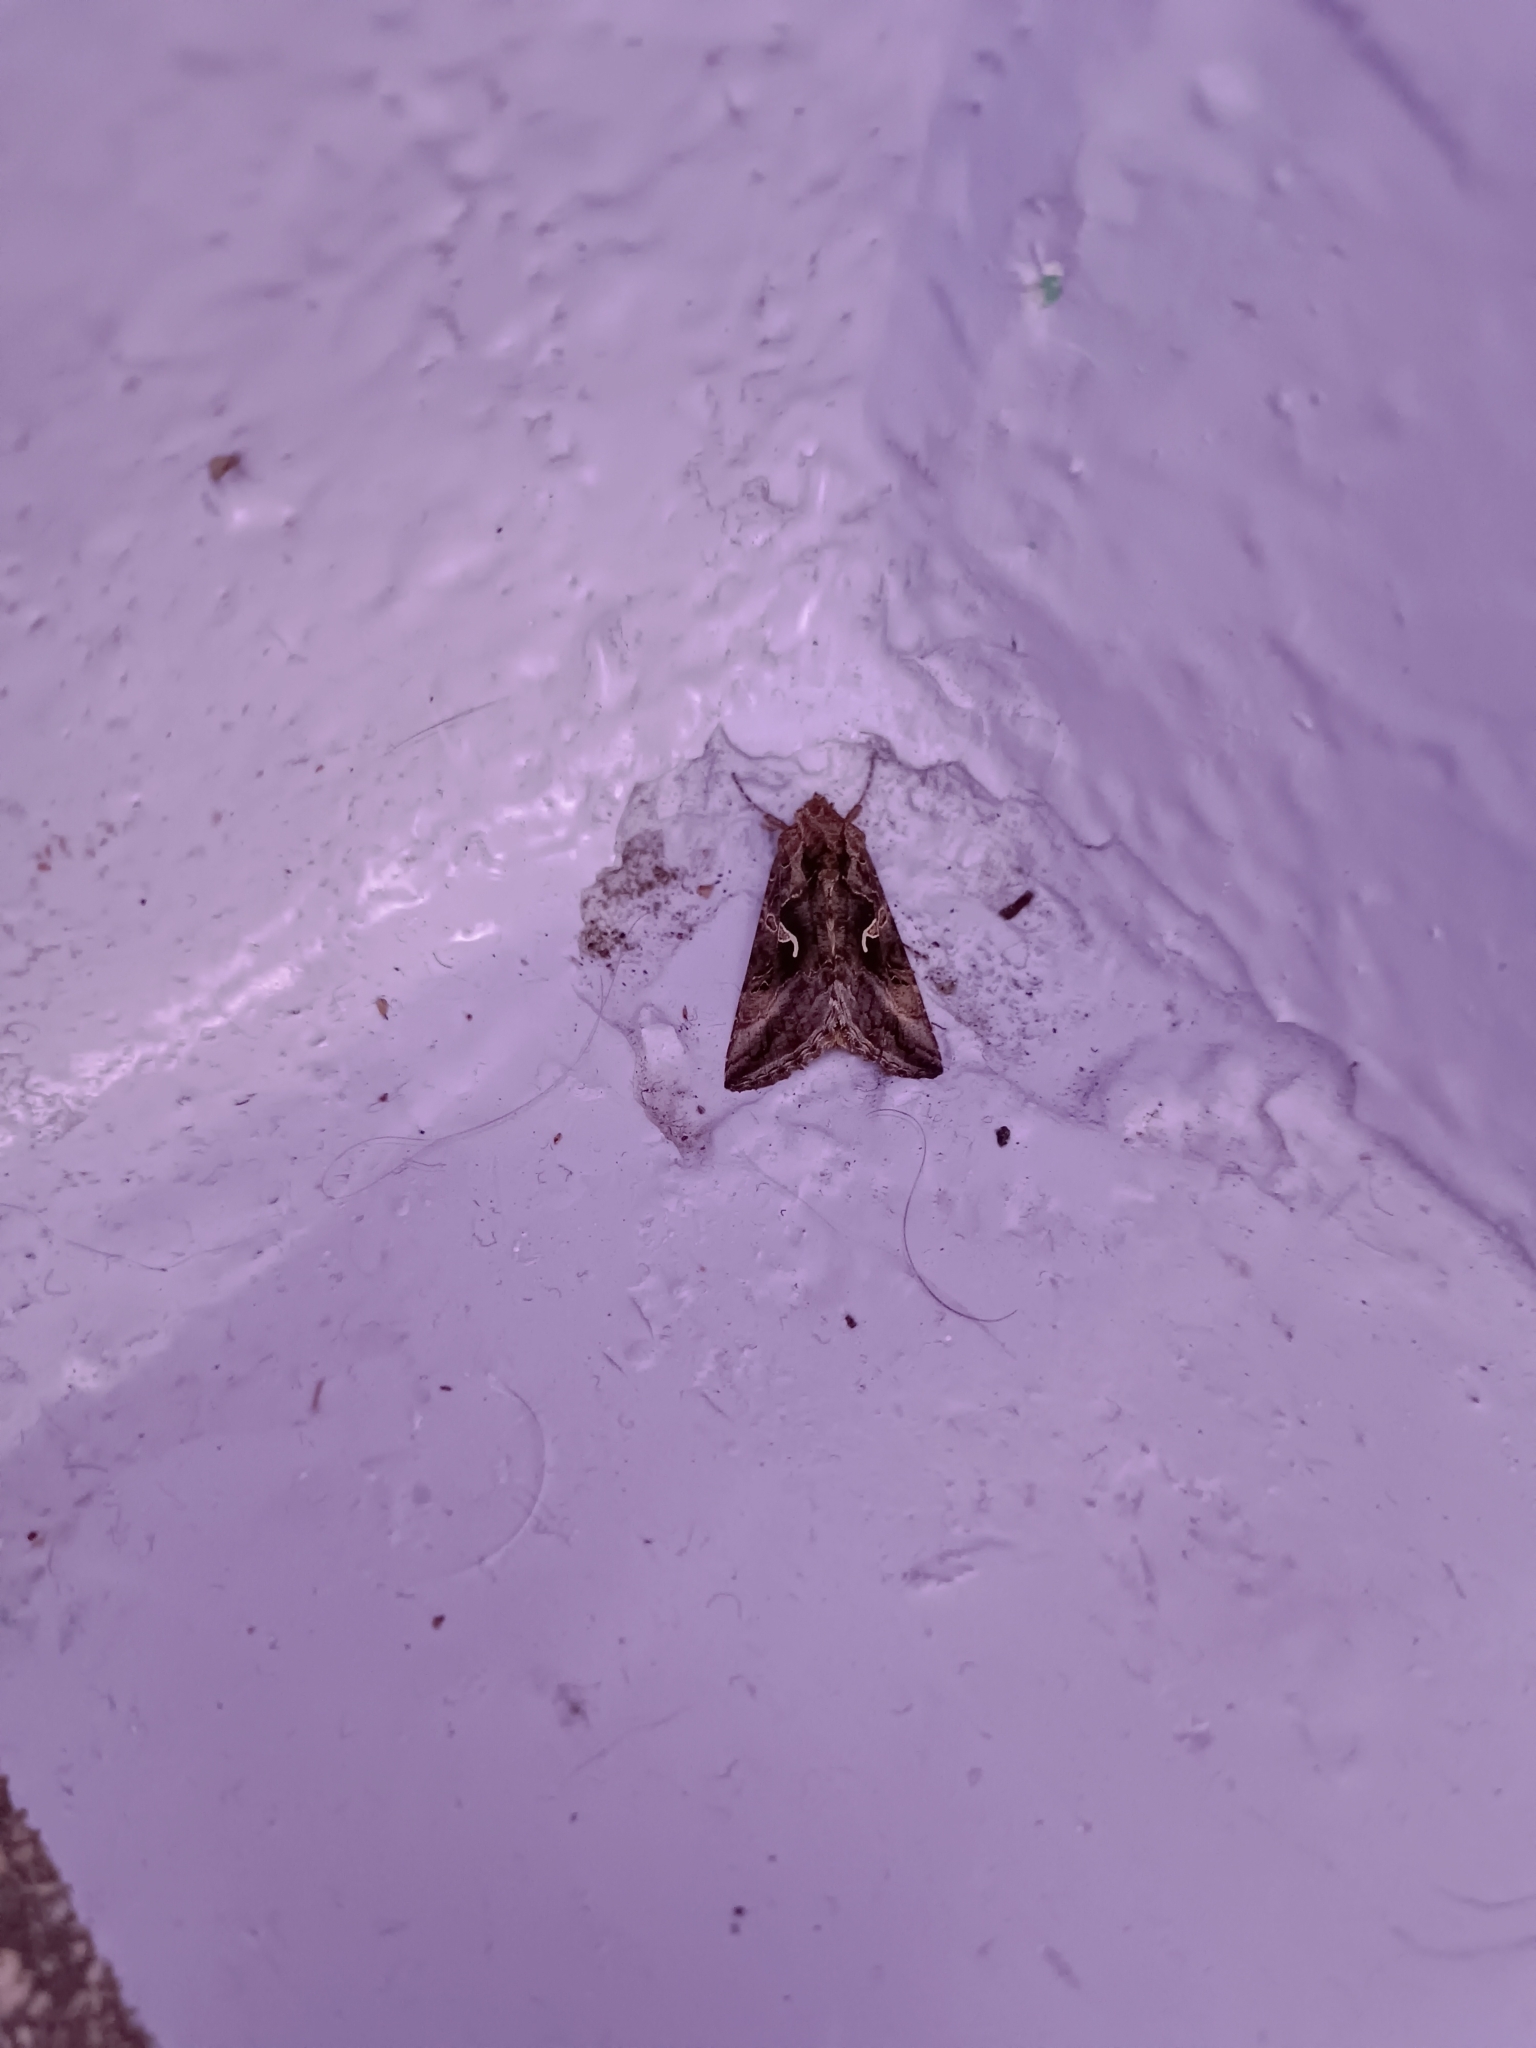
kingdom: Animalia
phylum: Arthropoda
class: Insecta
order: Lepidoptera
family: Noctuidae
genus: Autographa
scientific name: Autographa gamma
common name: Silver y
